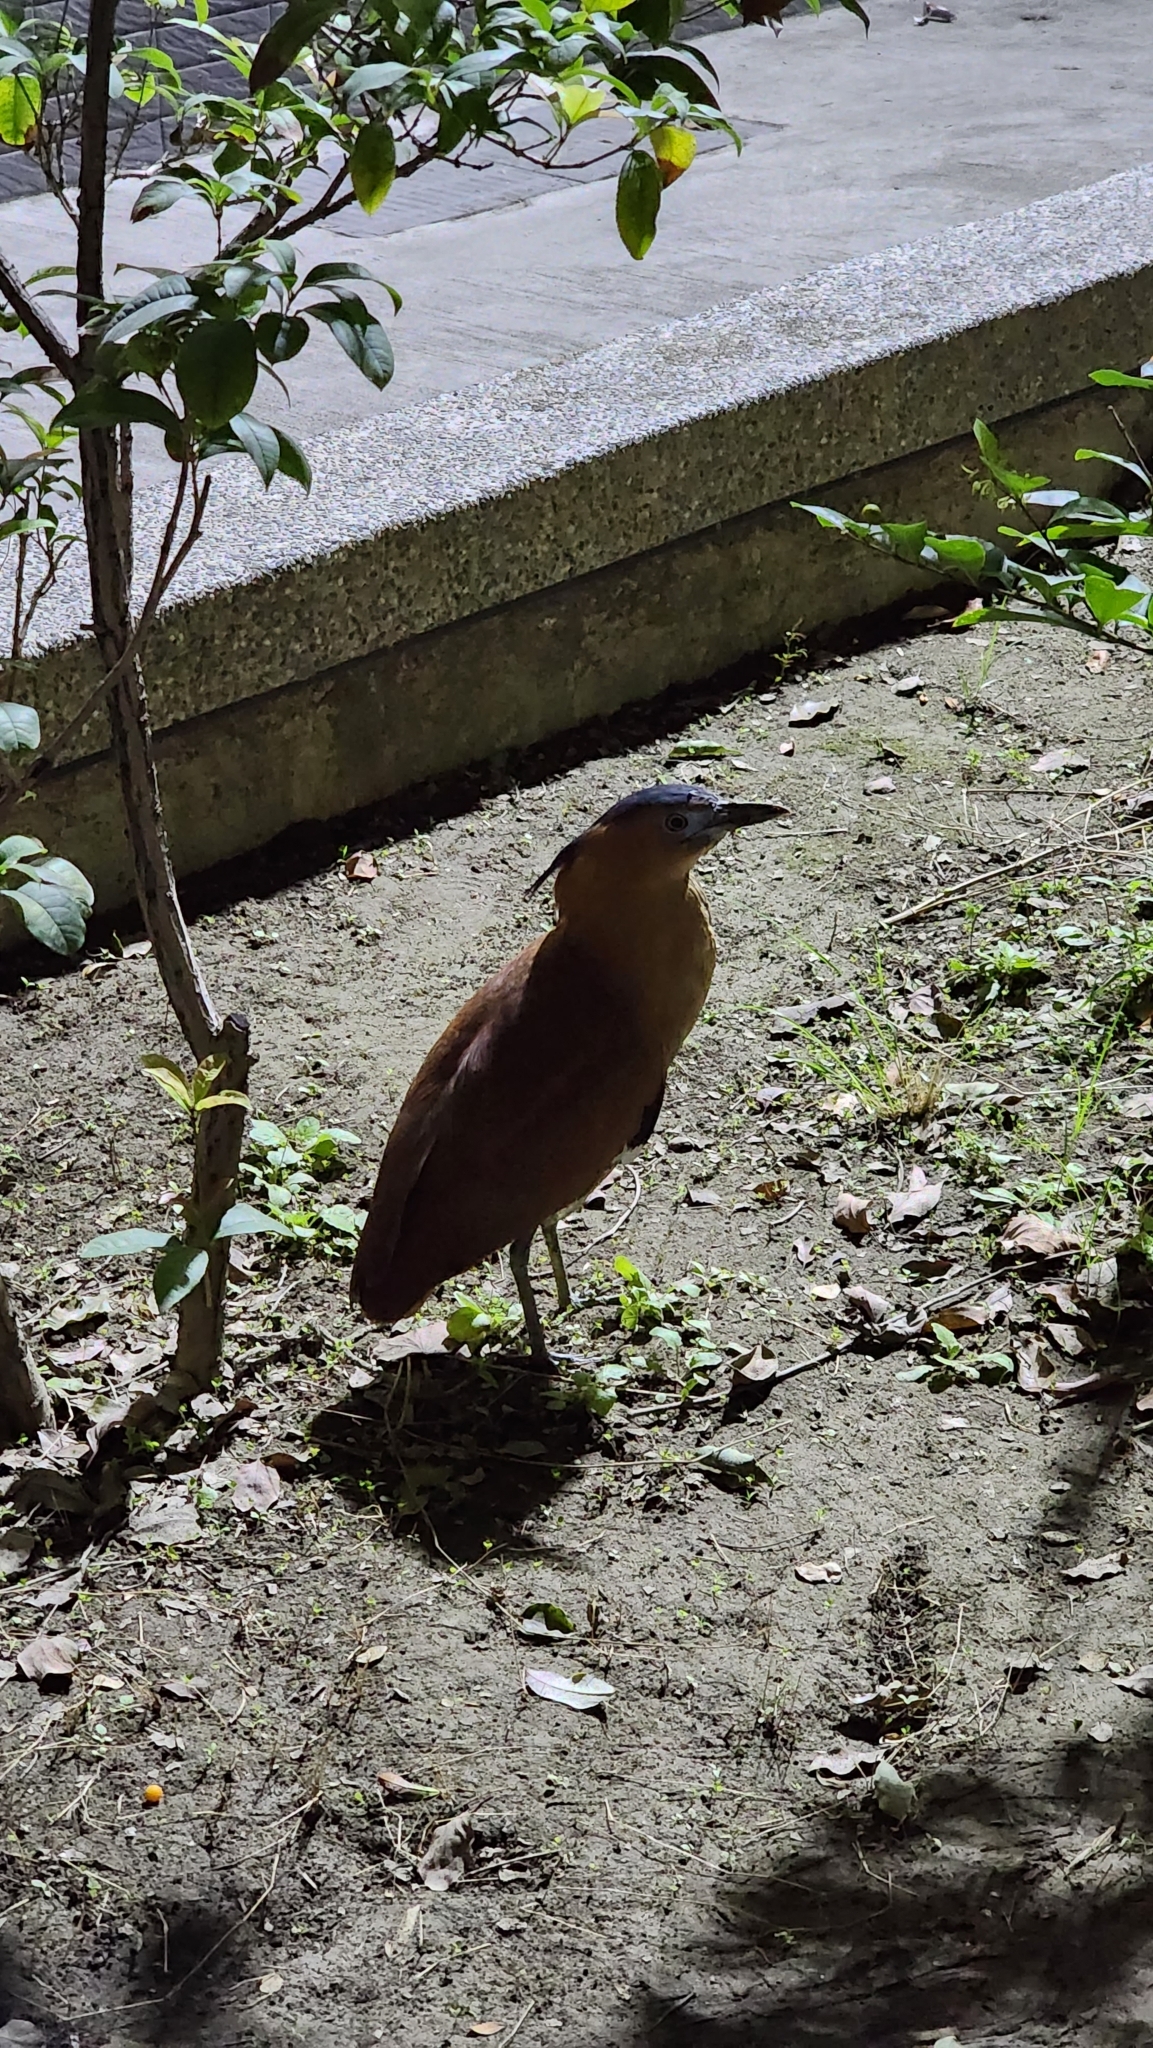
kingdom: Animalia
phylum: Chordata
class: Aves
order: Pelecaniformes
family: Ardeidae
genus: Gorsachius
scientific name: Gorsachius melanolophus
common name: Malayan night heron
